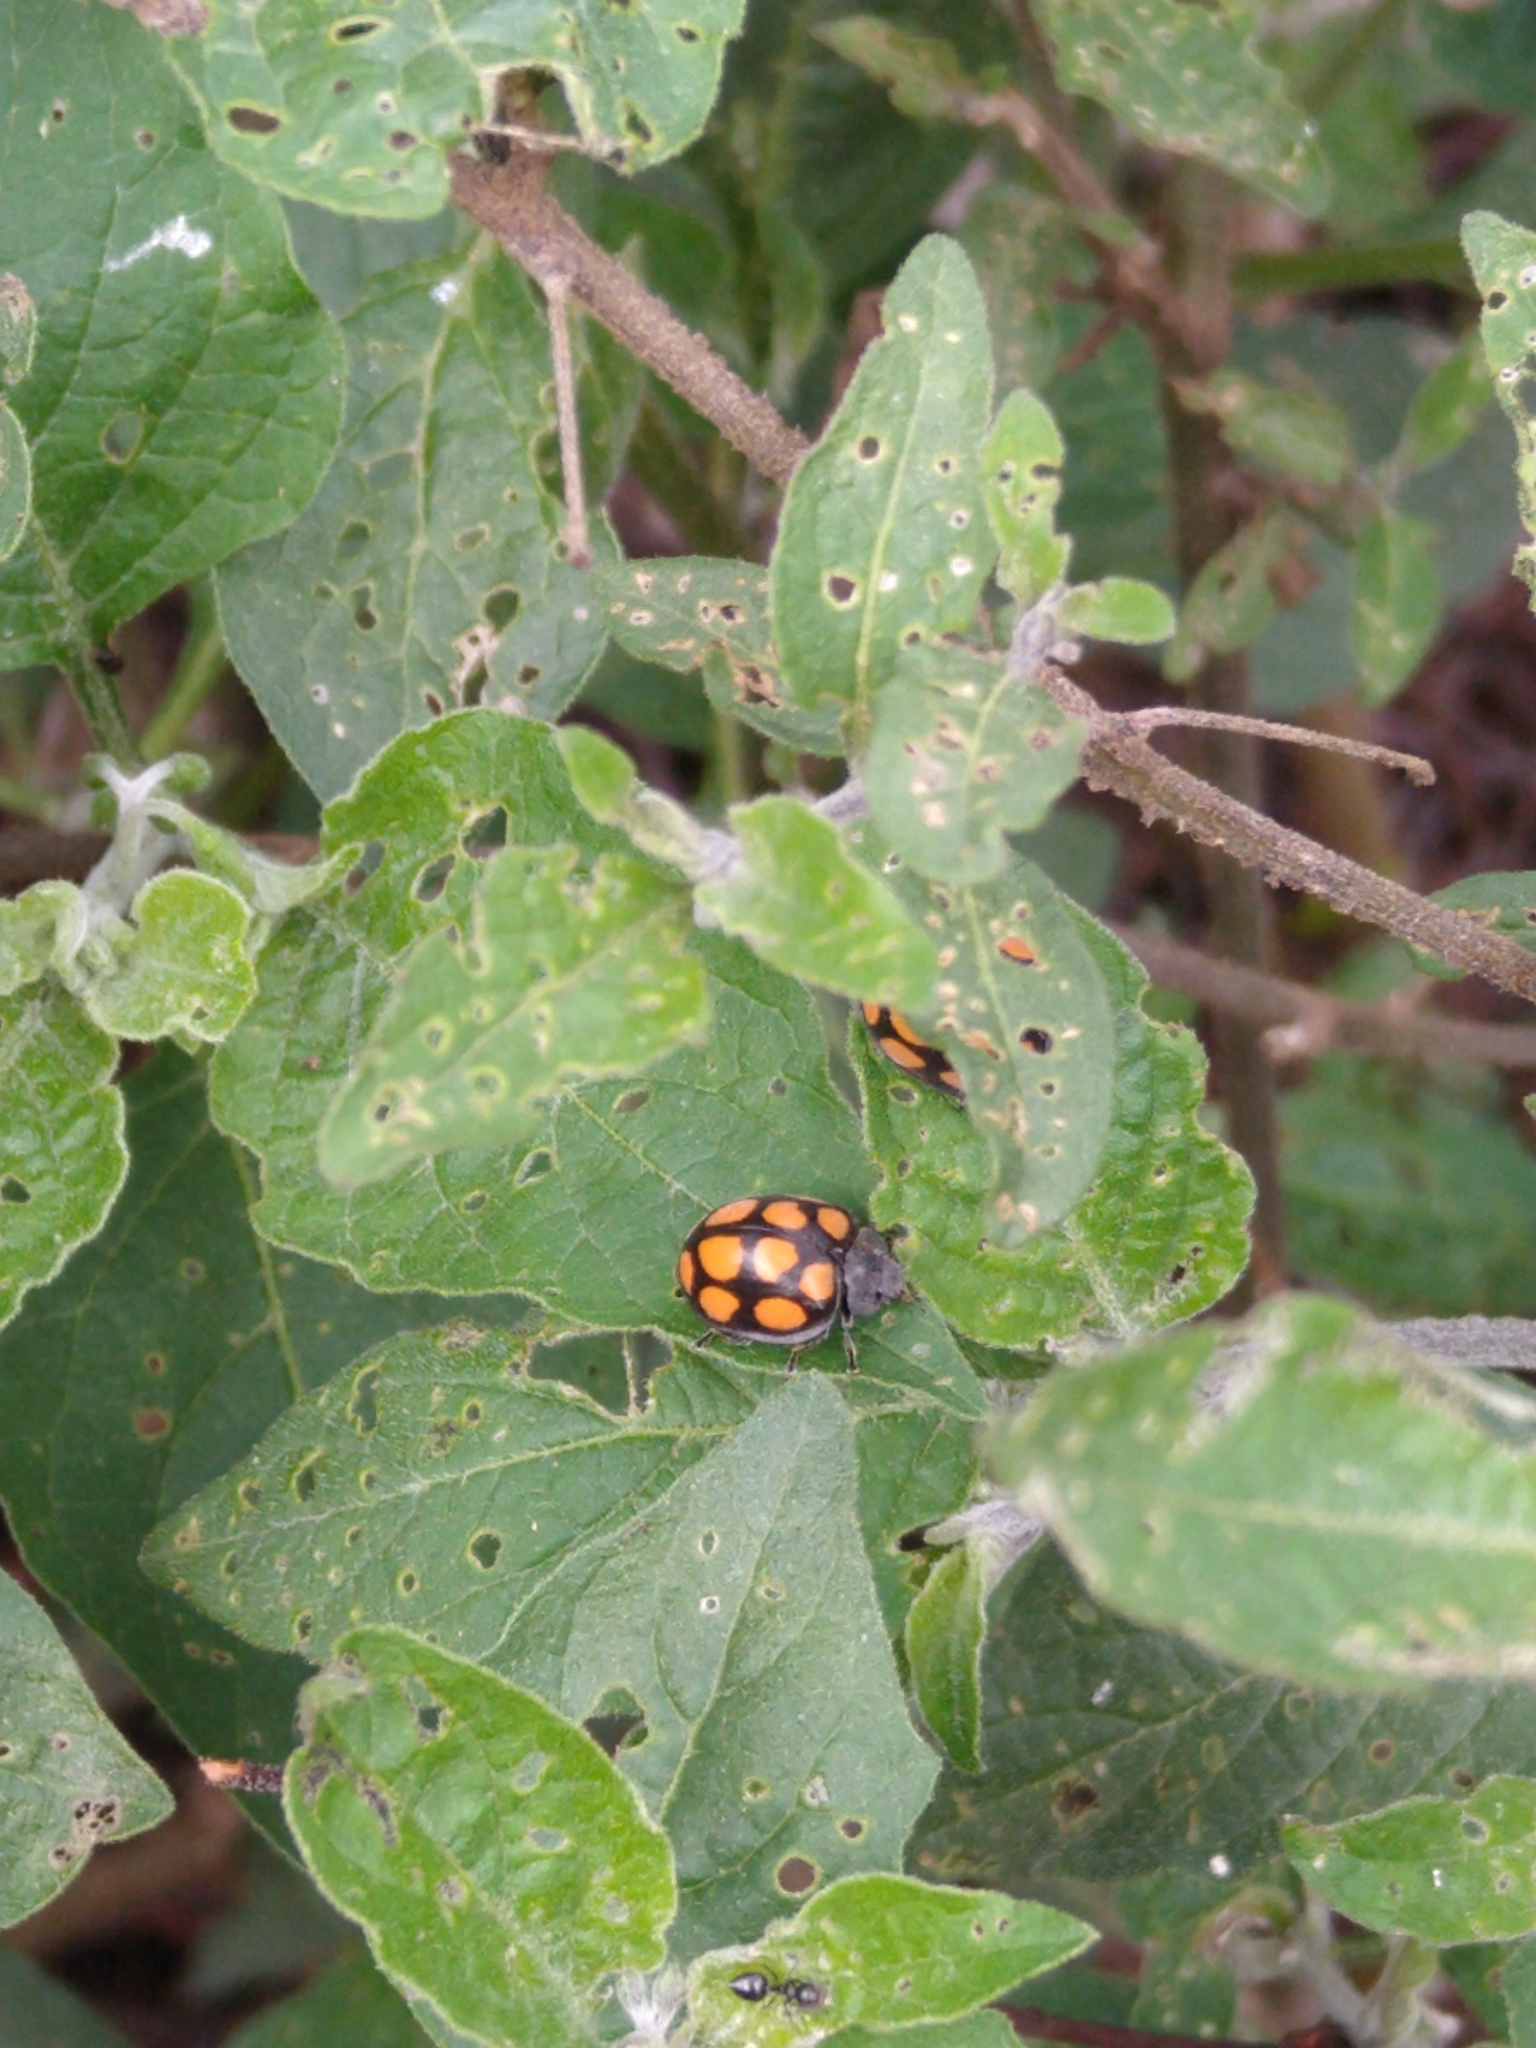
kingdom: Animalia
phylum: Arthropoda
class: Insecta
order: Coleoptera
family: Coccinellidae
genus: Epilachna
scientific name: Epilachna
